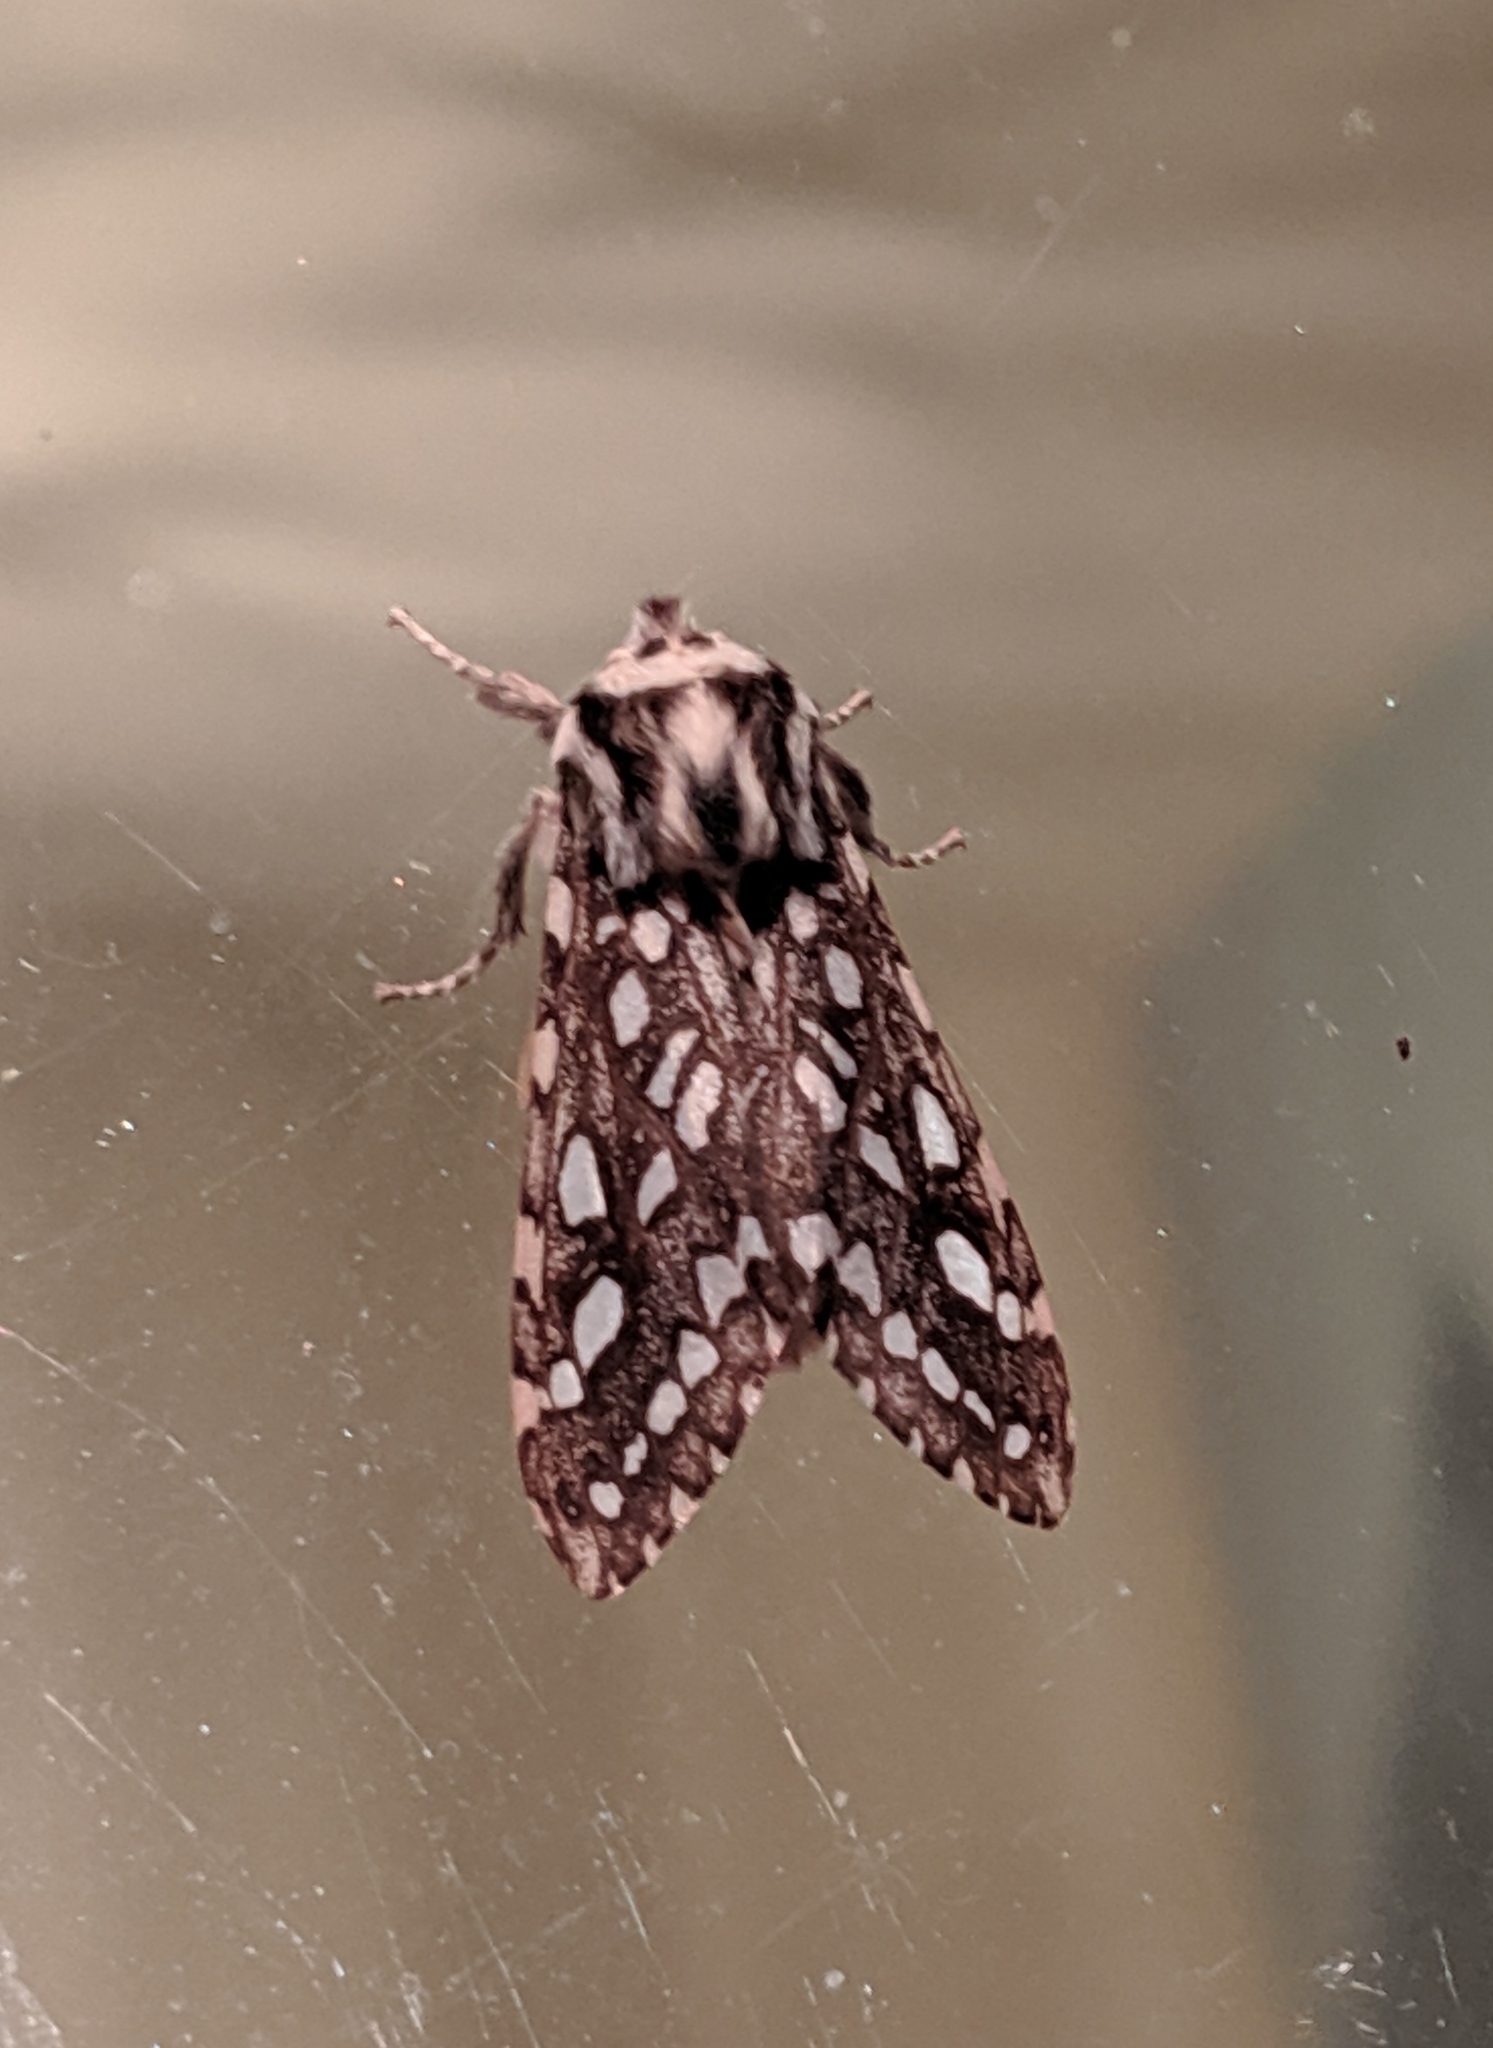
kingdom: Animalia
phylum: Arthropoda
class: Insecta
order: Lepidoptera
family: Erebidae
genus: Lophocampa
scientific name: Lophocampa argentata
